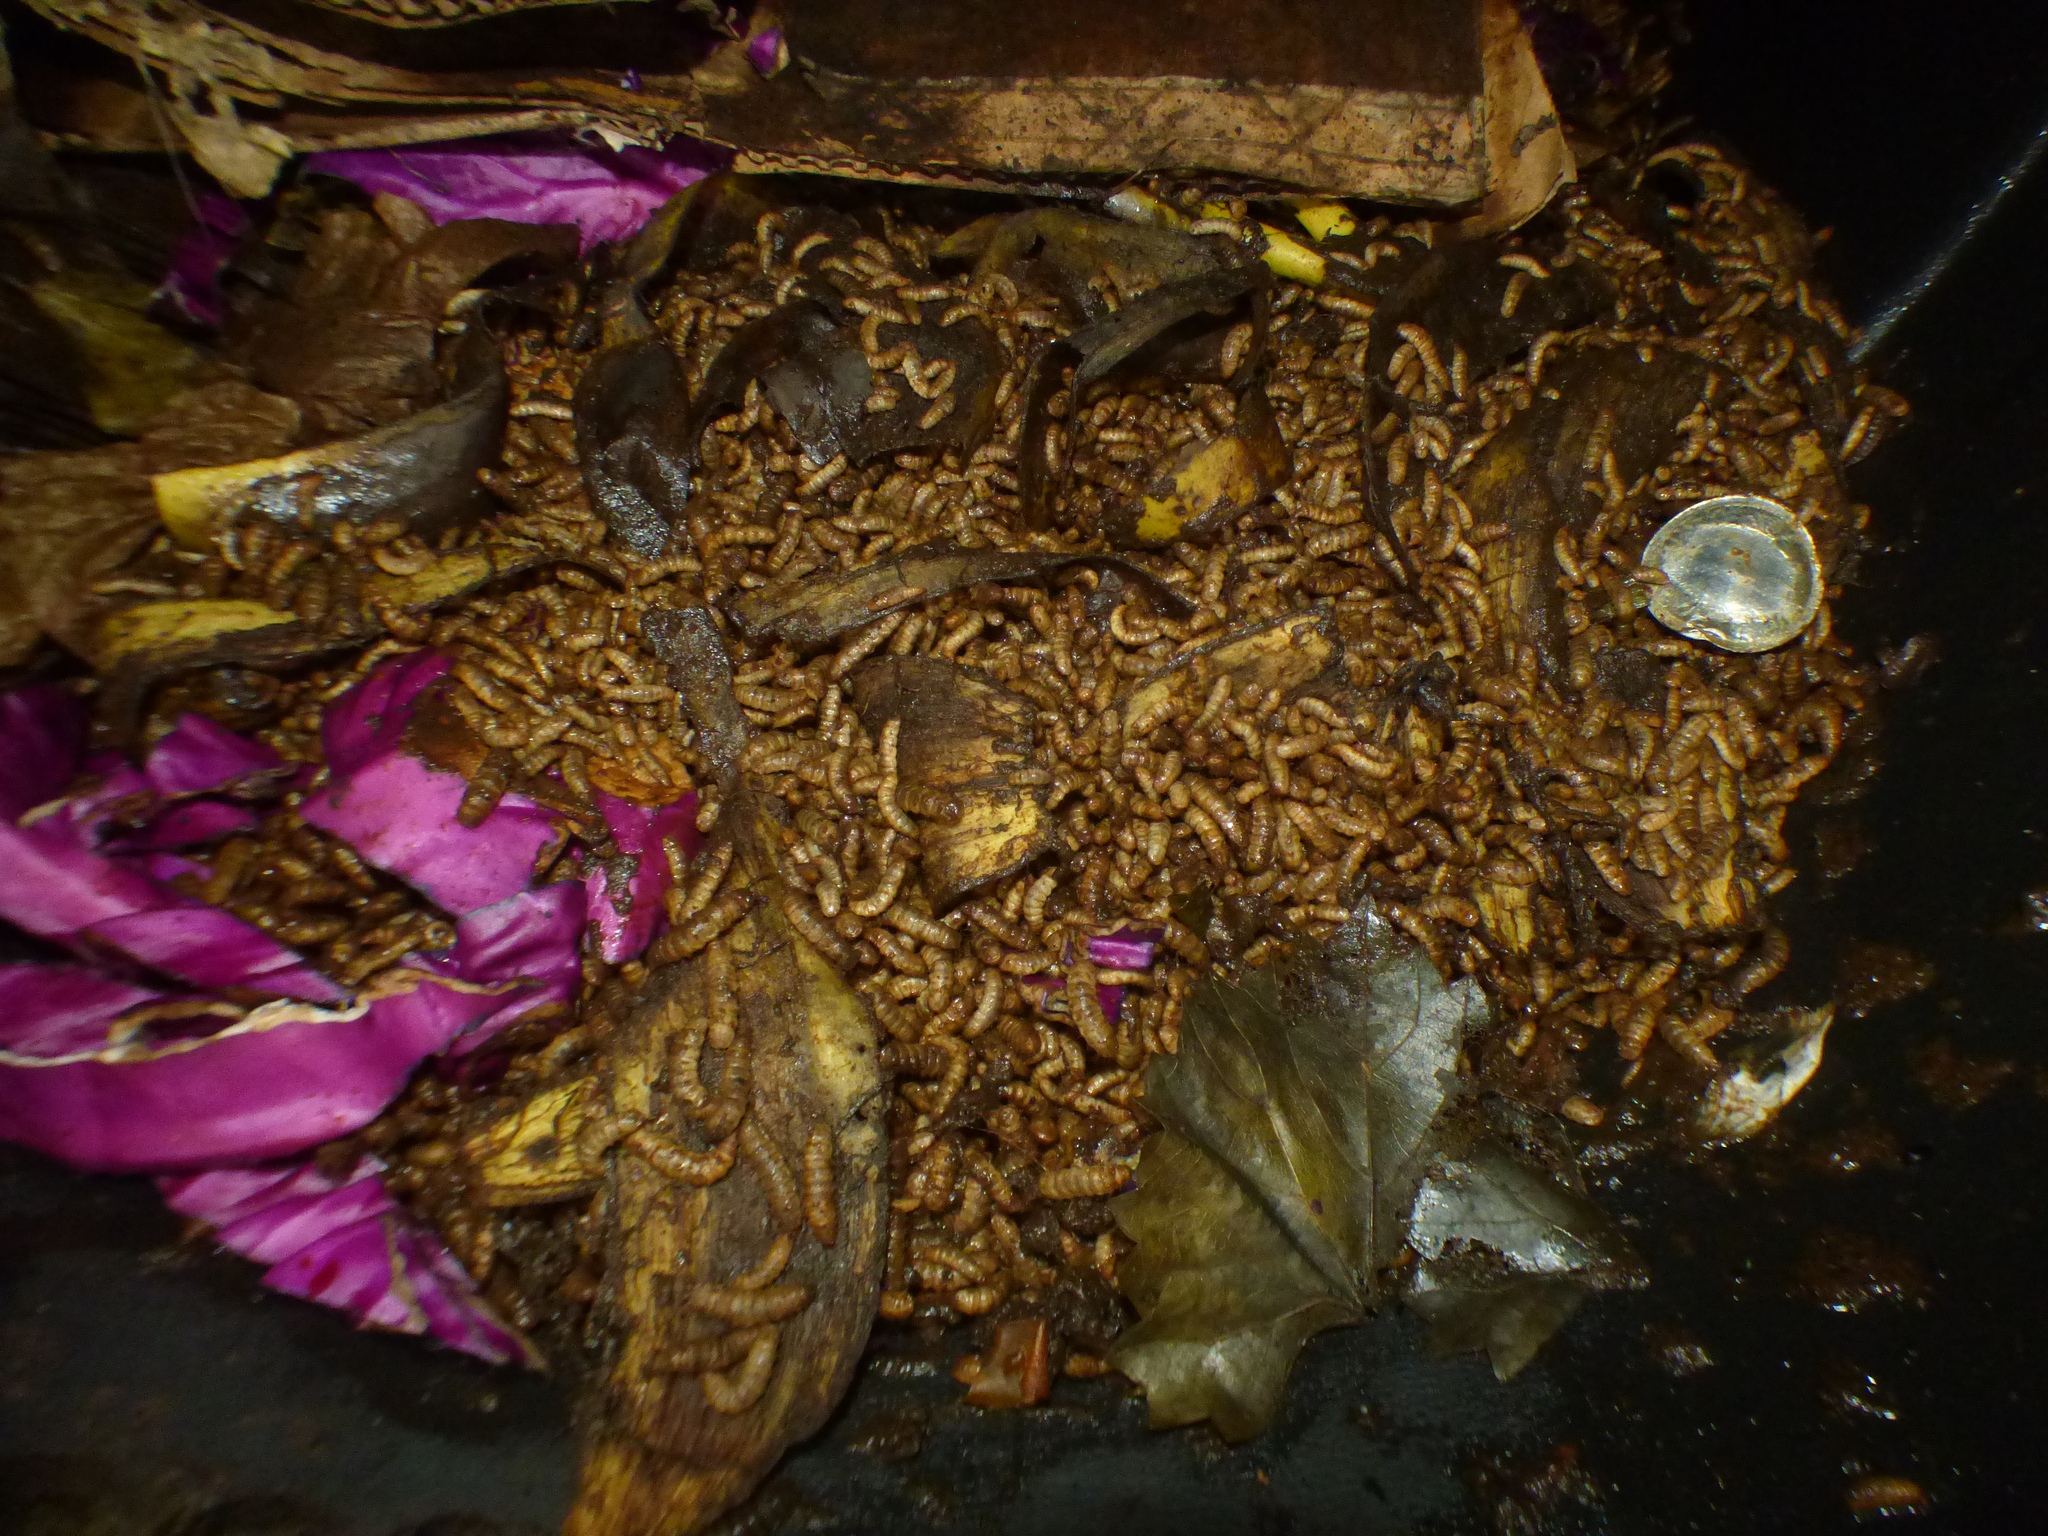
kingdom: Animalia
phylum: Arthropoda
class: Insecta
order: Diptera
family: Stratiomyidae
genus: Hermetia
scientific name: Hermetia illucens
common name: Black soldier fly
